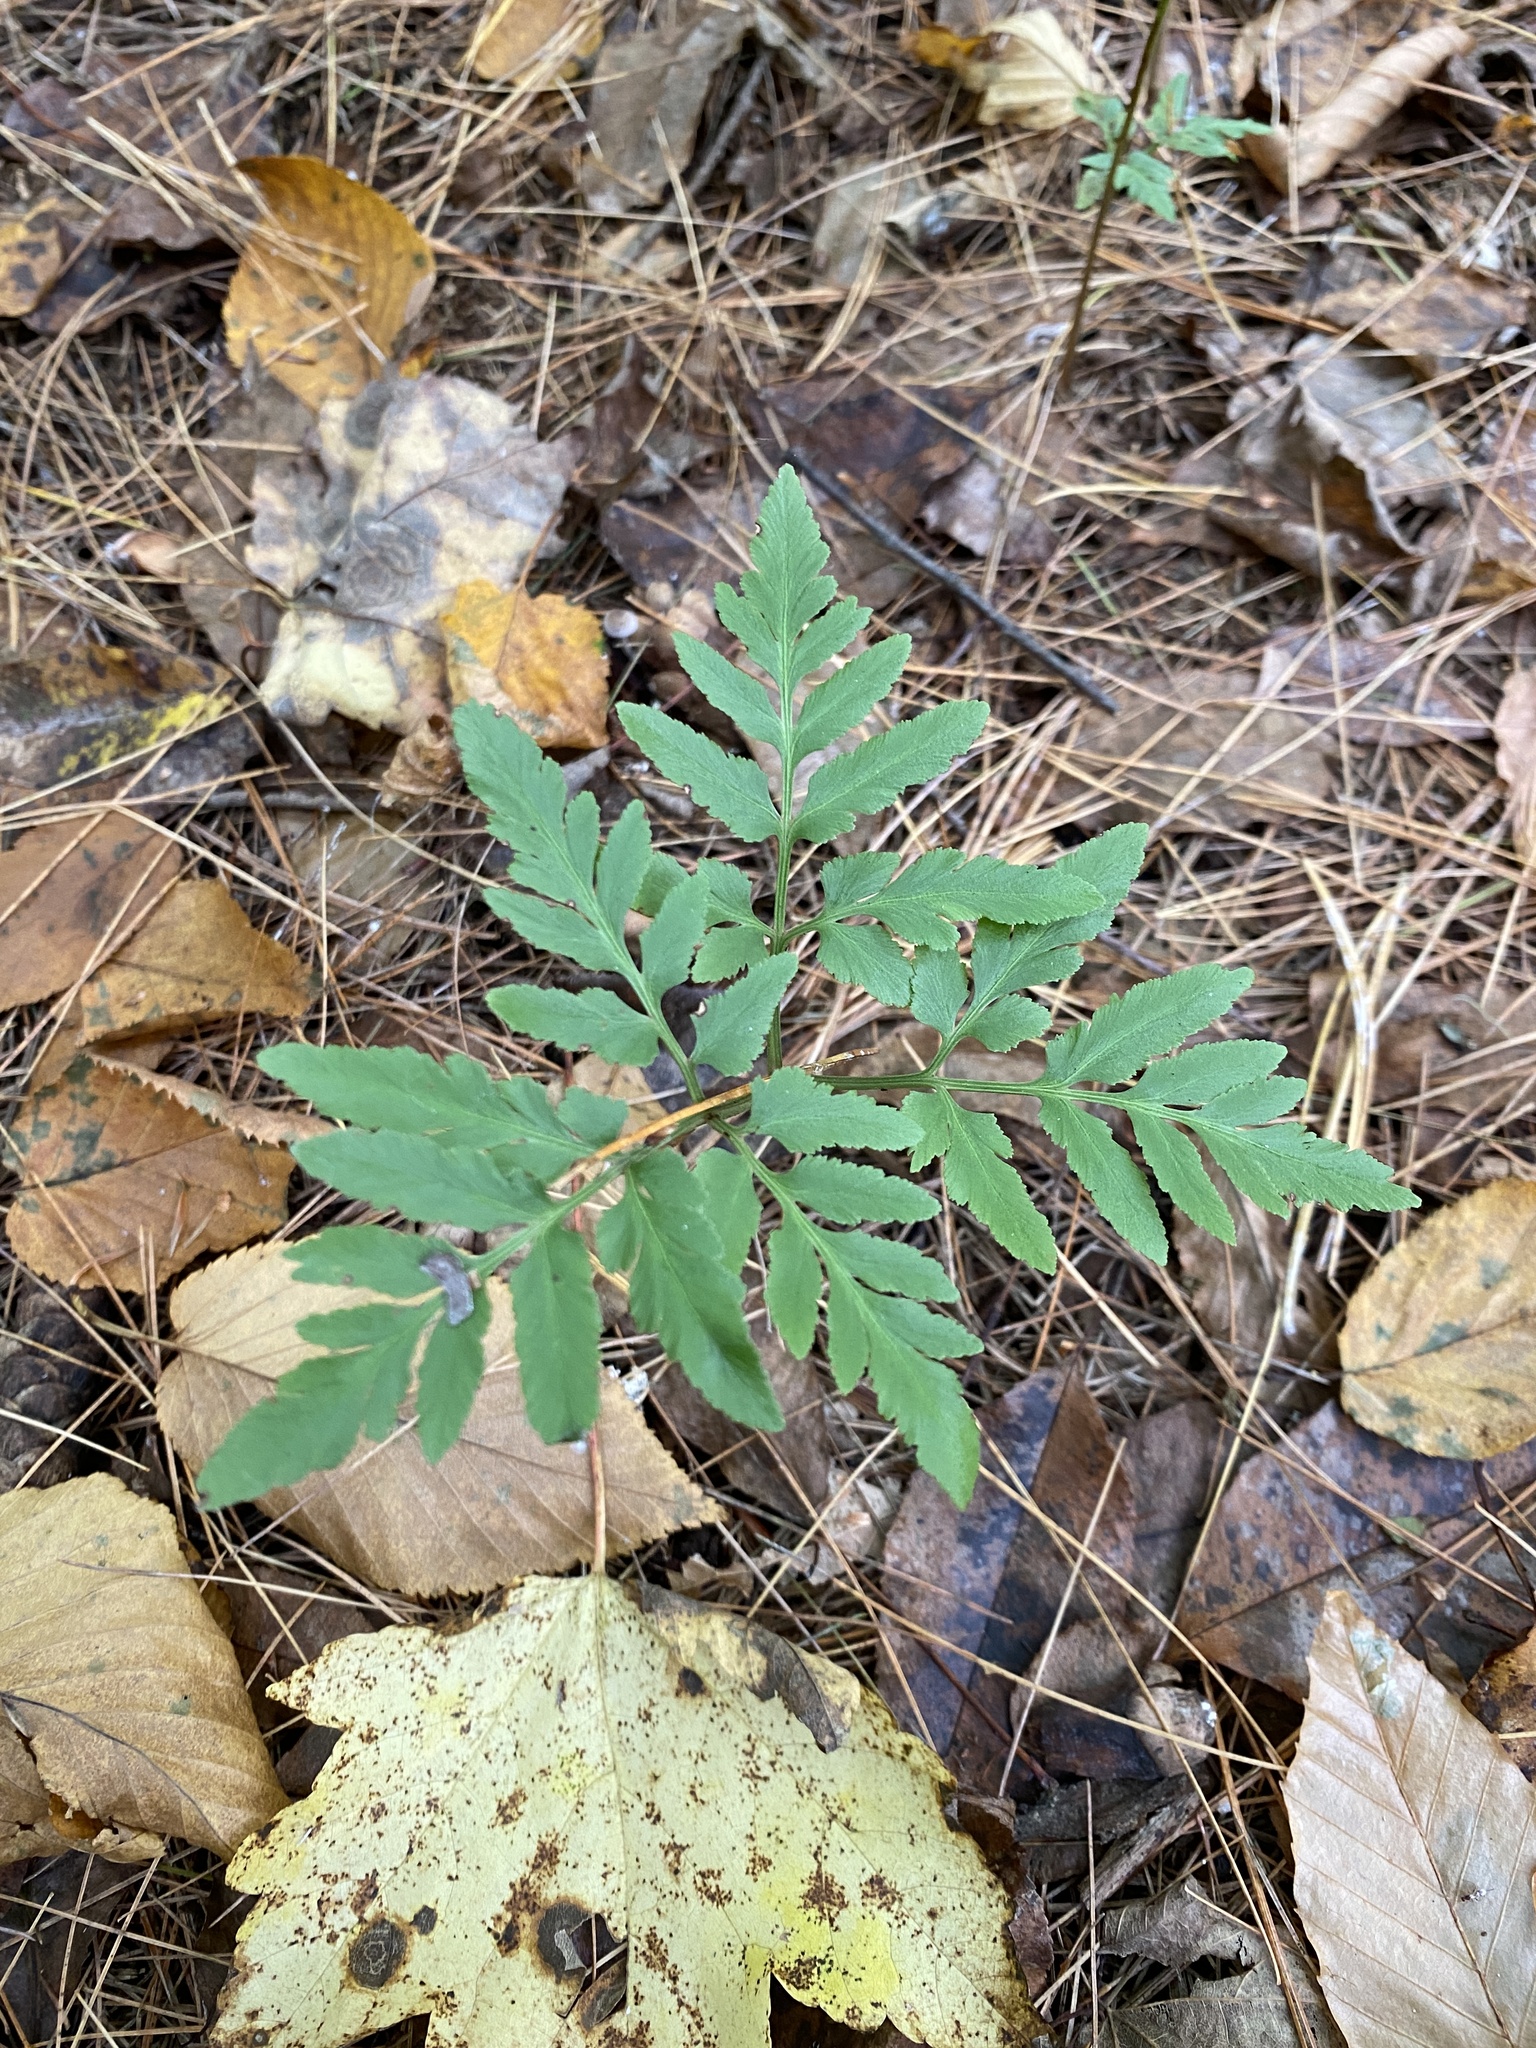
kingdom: Plantae
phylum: Tracheophyta
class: Polypodiopsida
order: Ophioglossales
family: Ophioglossaceae
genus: Sceptridium
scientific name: Sceptridium dissectum
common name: Cut-leaved grapefern
